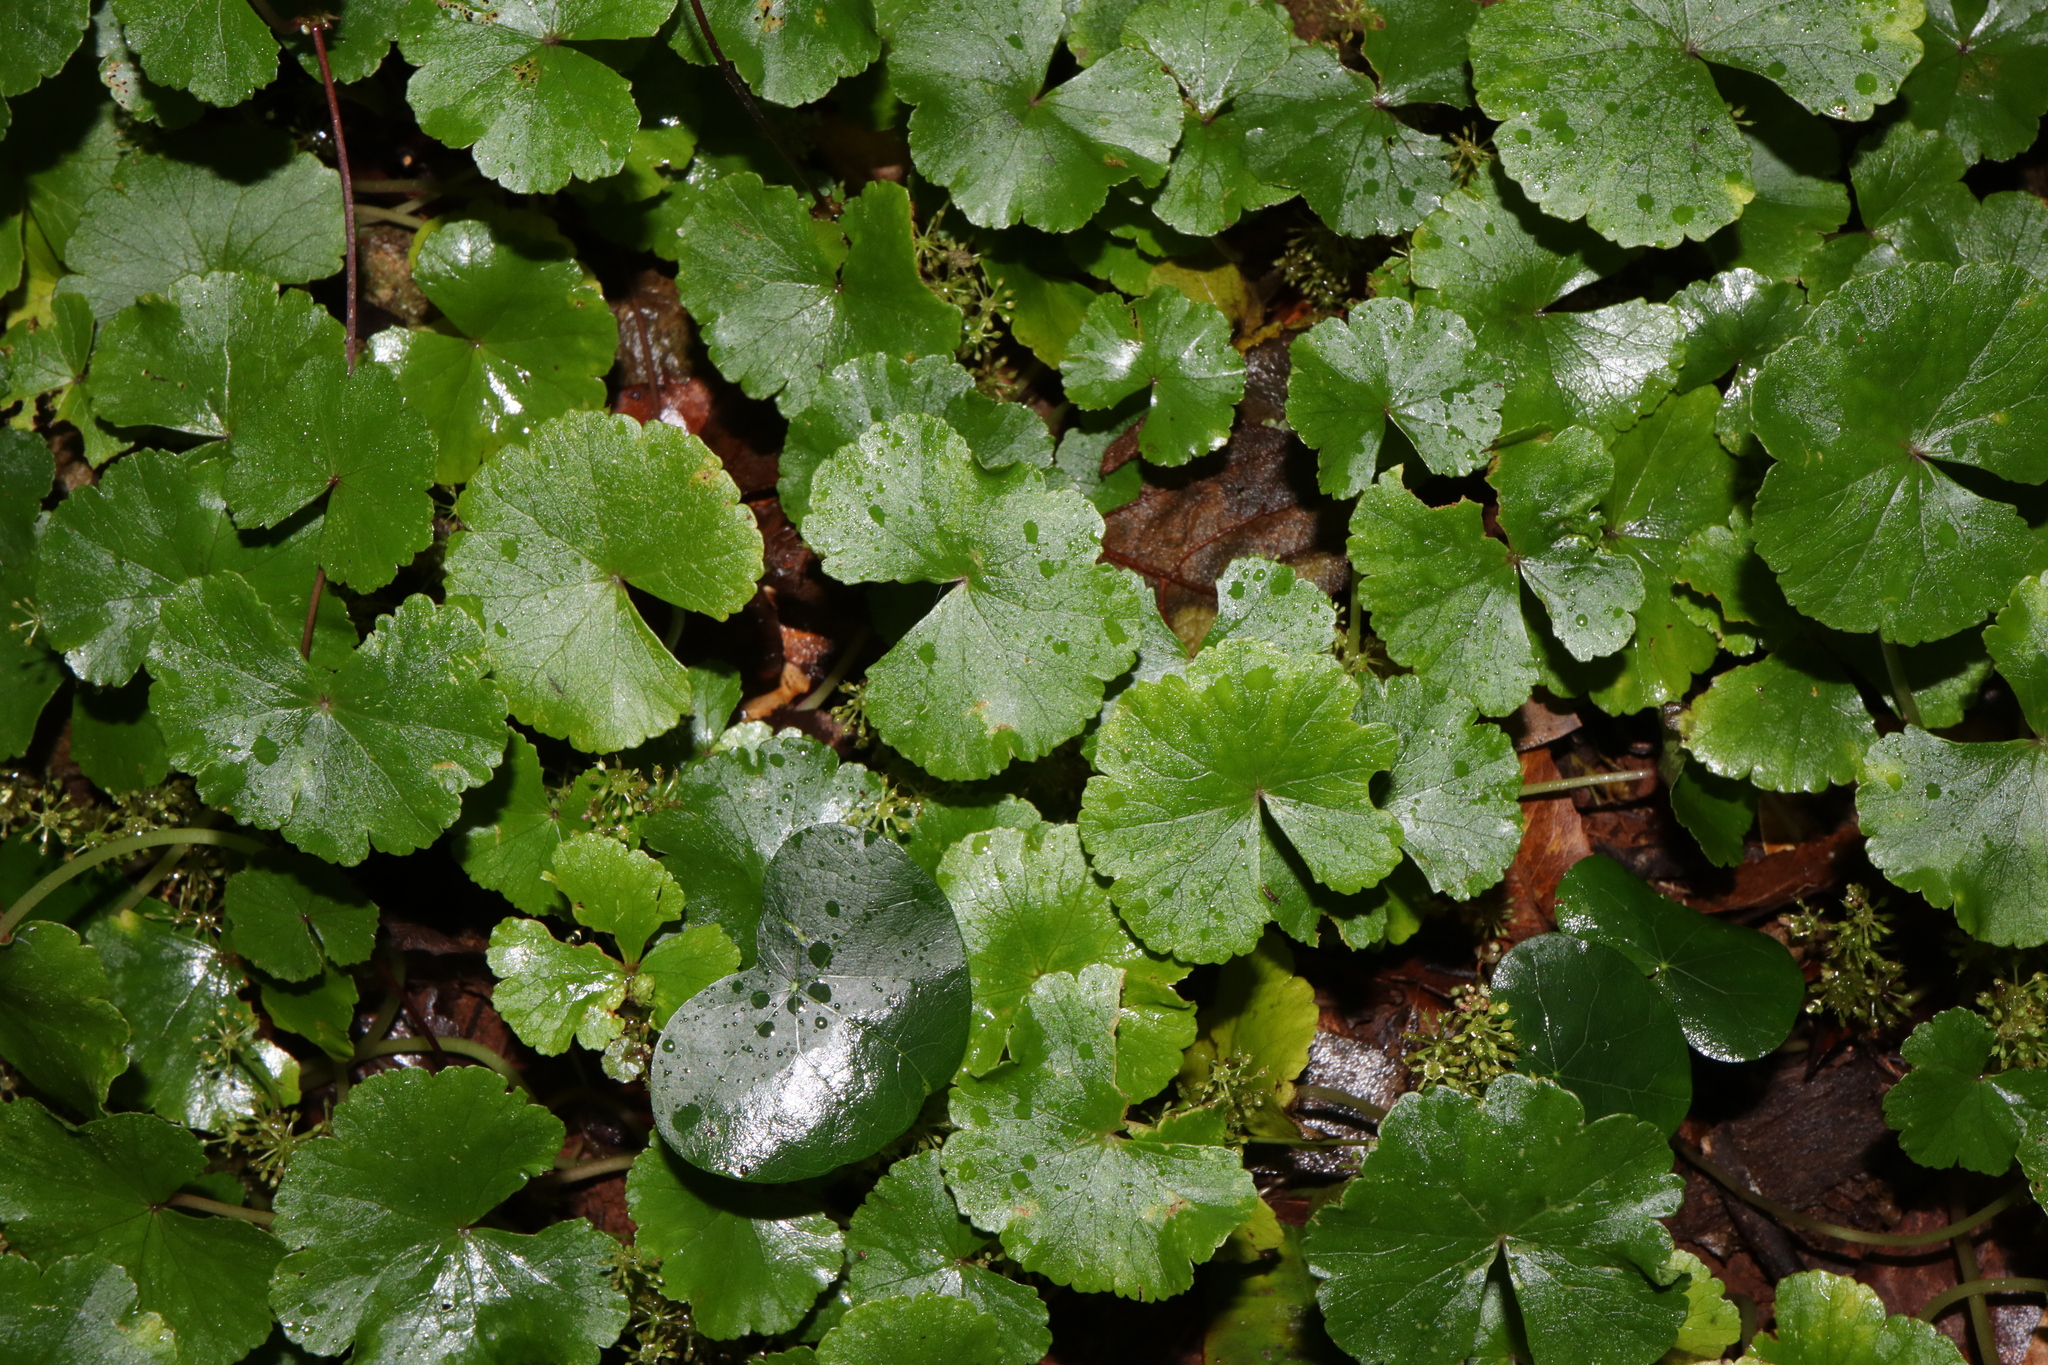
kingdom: Plantae
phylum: Tracheophyta
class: Magnoliopsida
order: Apiales
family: Araliaceae
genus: Hydrocotyle
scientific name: Hydrocotyle pedicellosa
